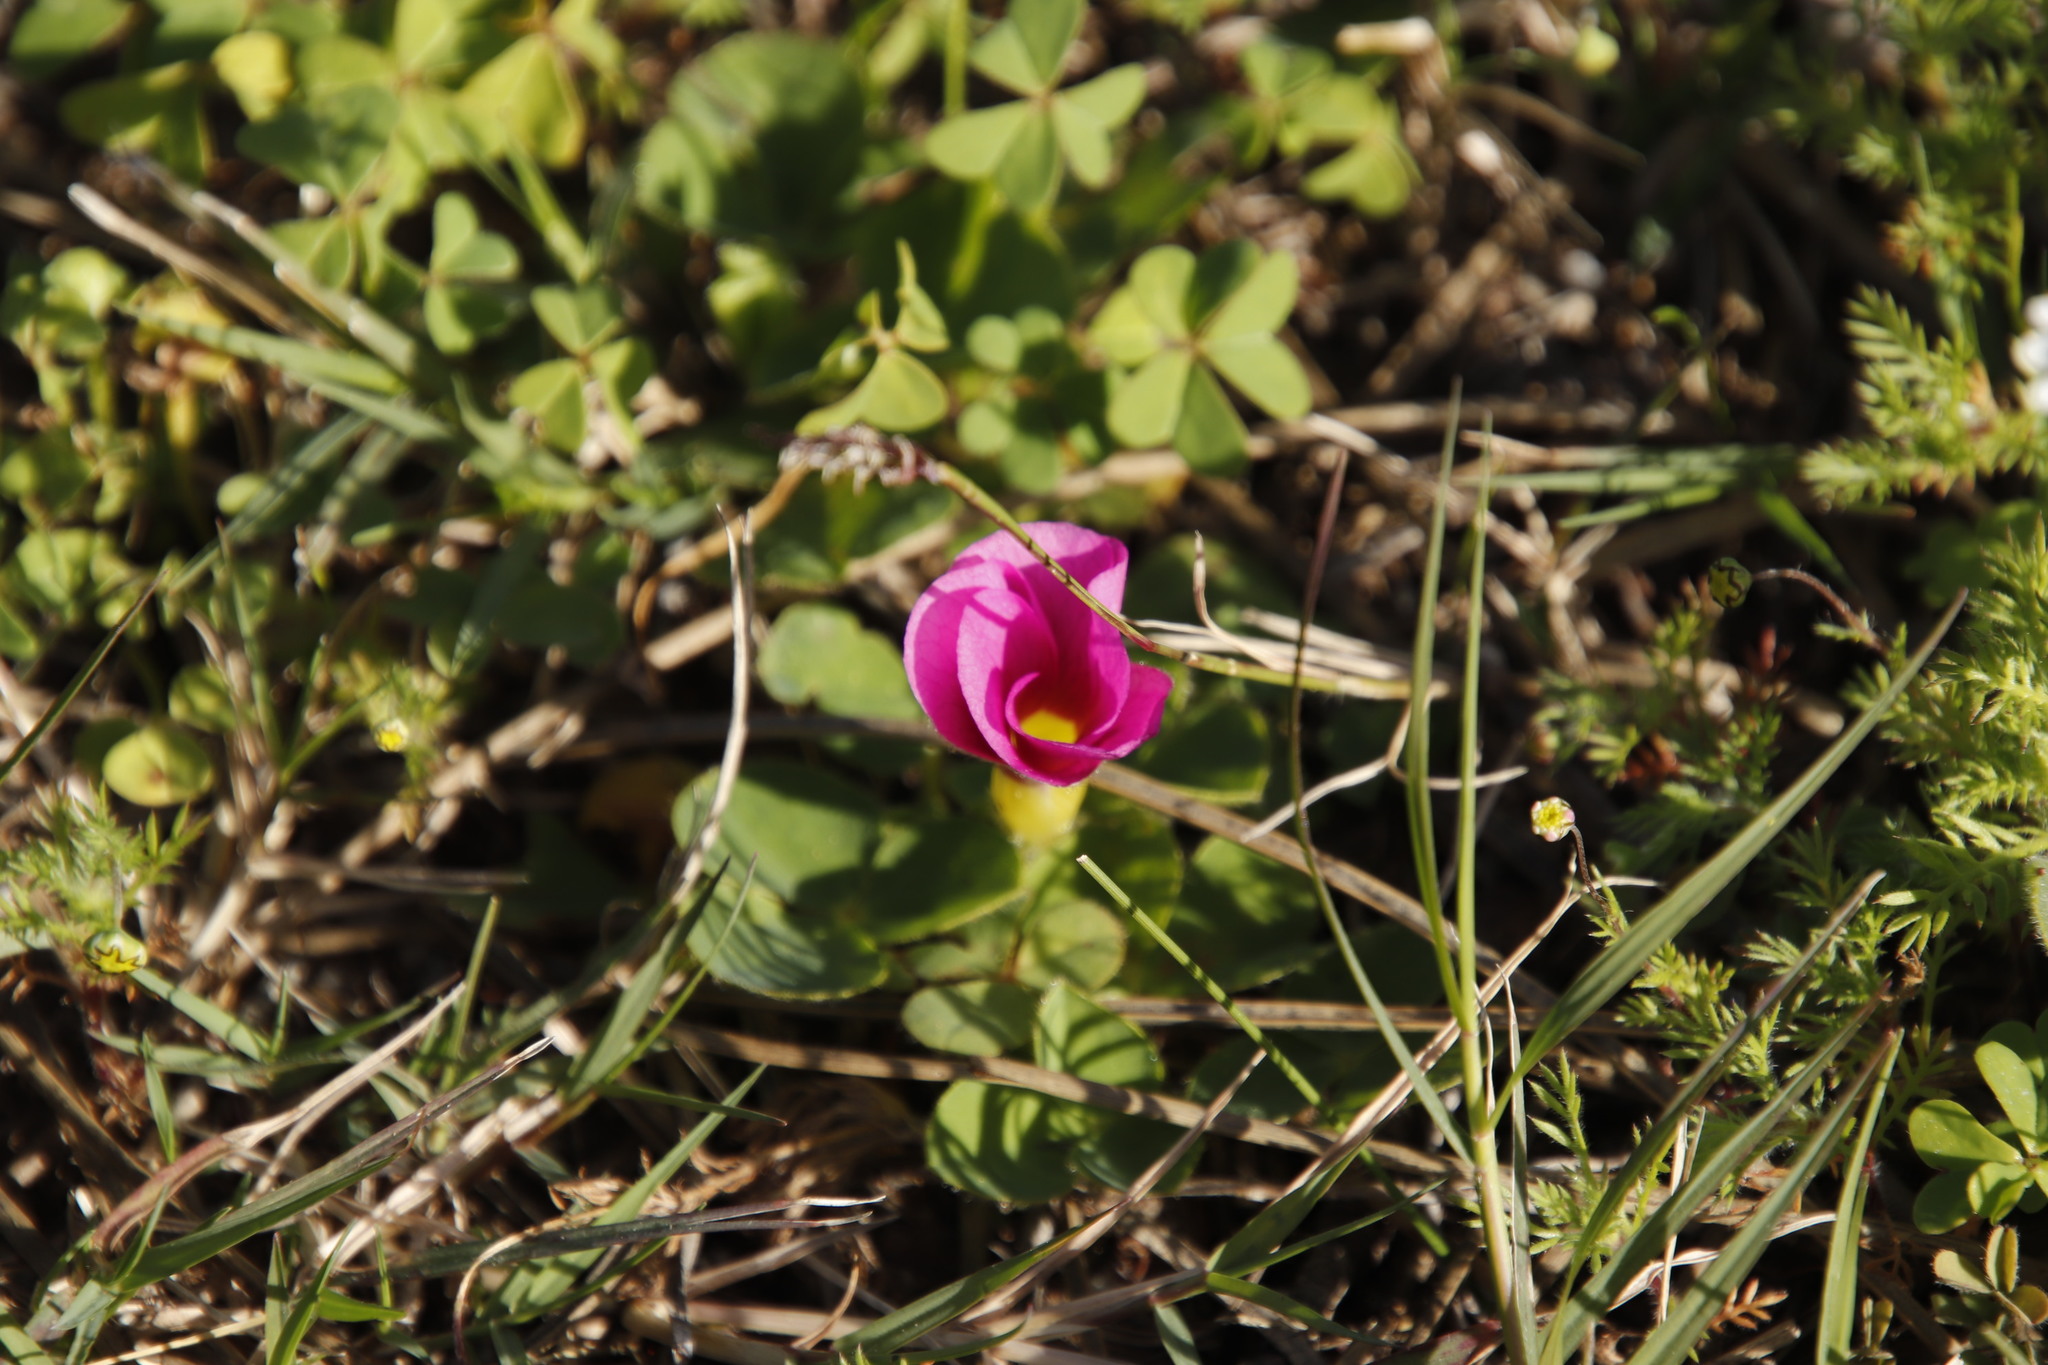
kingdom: Plantae
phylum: Tracheophyta
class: Magnoliopsida
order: Oxalidales
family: Oxalidaceae
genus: Oxalis
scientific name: Oxalis purpurea
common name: Purple woodsorrel
